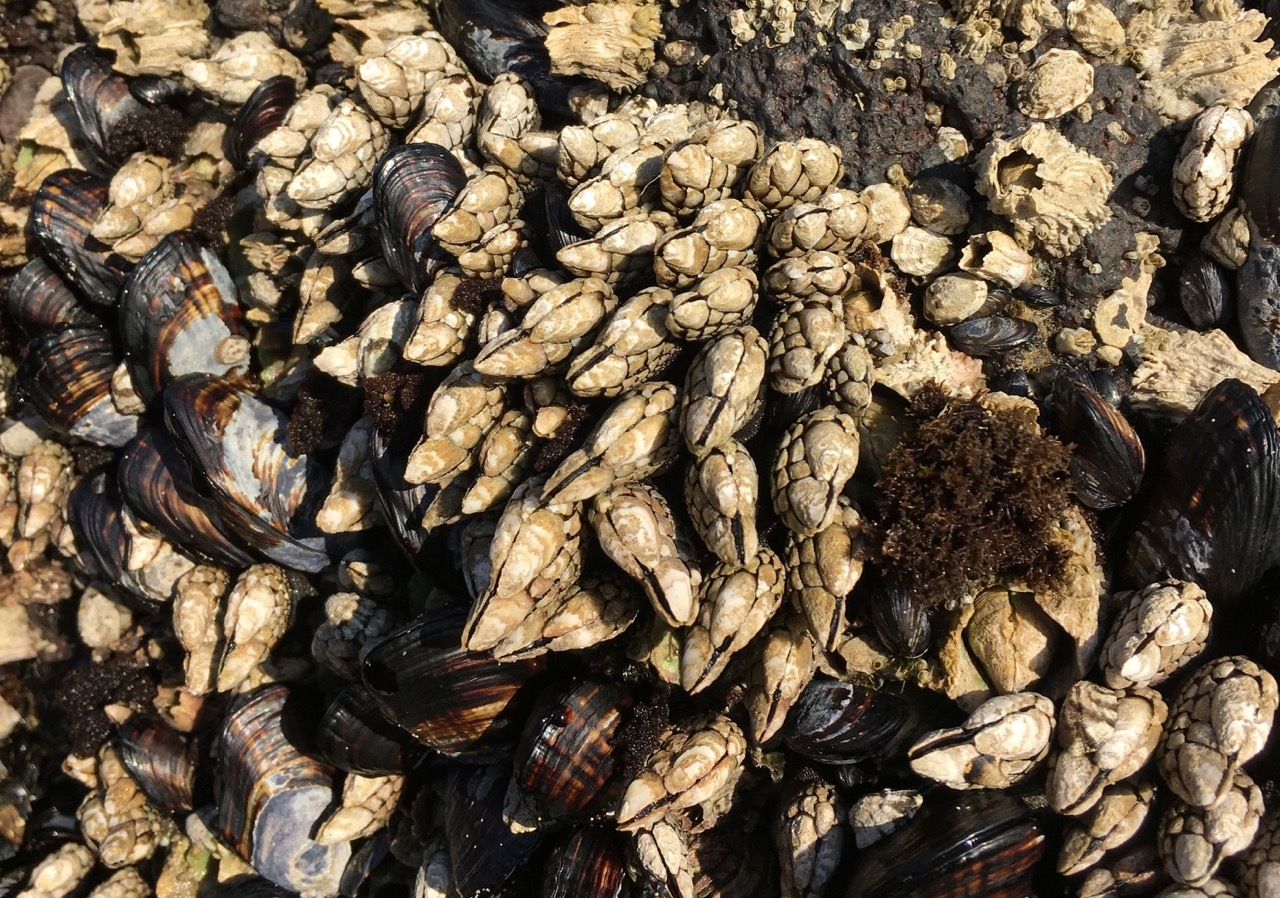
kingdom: Animalia
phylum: Arthropoda
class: Maxillopoda
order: Pedunculata
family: Pollicipedidae
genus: Pollicipes
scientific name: Pollicipes polymerus
